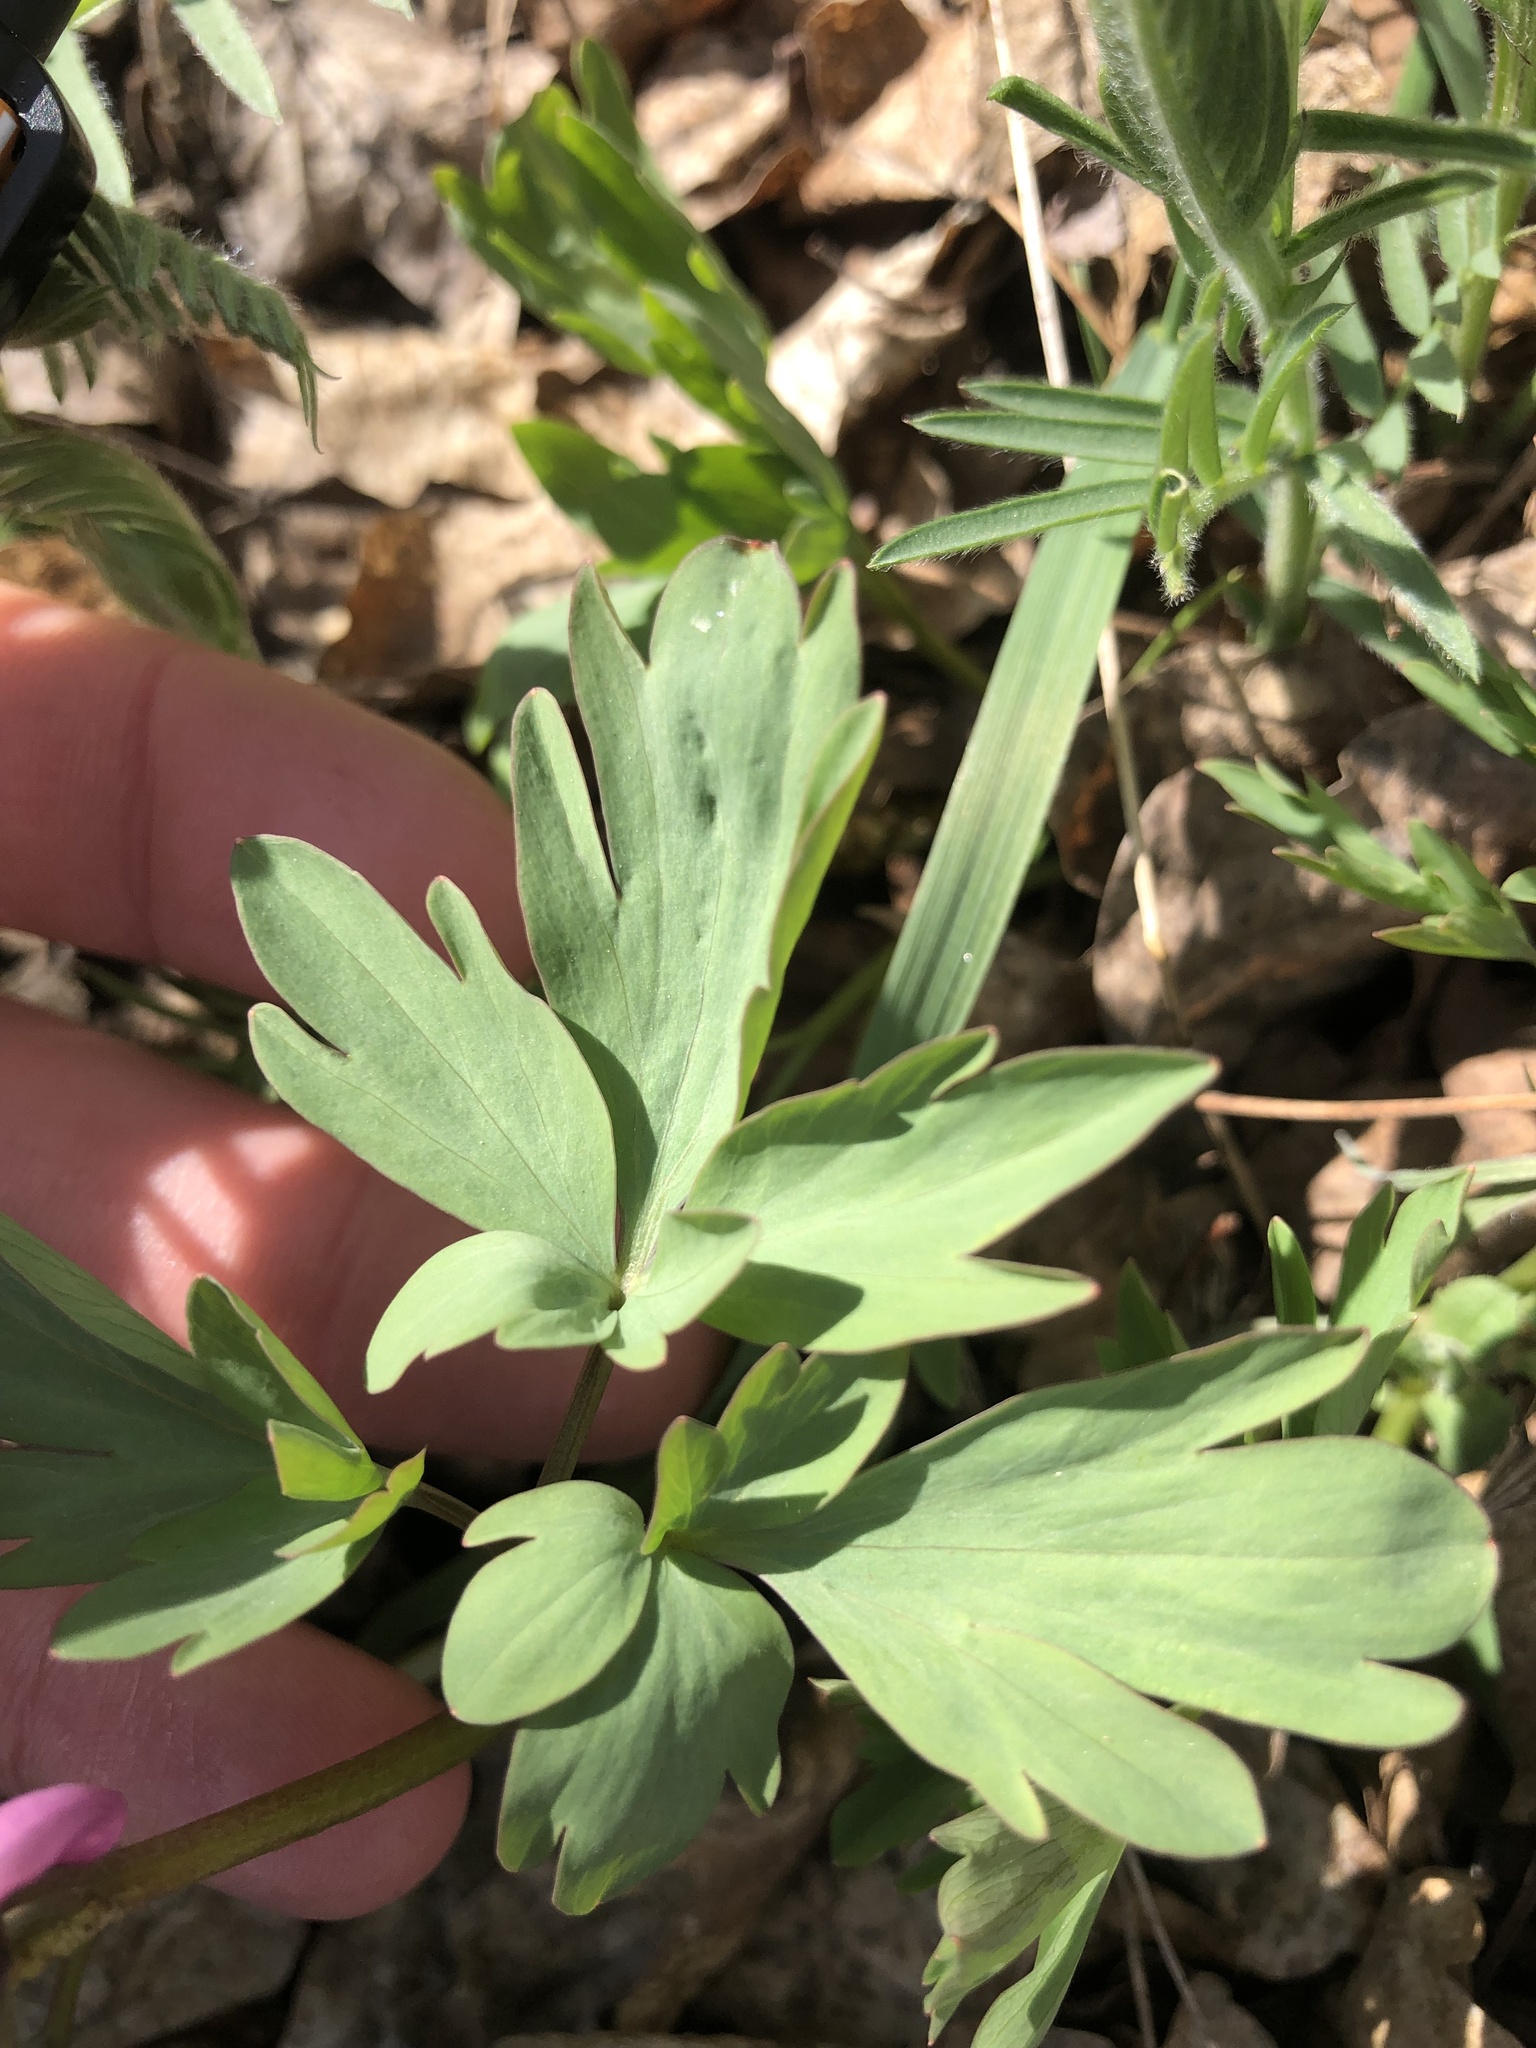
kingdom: Plantae
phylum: Tracheophyta
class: Magnoliopsida
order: Ranunculales
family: Papaveraceae
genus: Corydalis
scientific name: Corydalis cava
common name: Hollowroot
